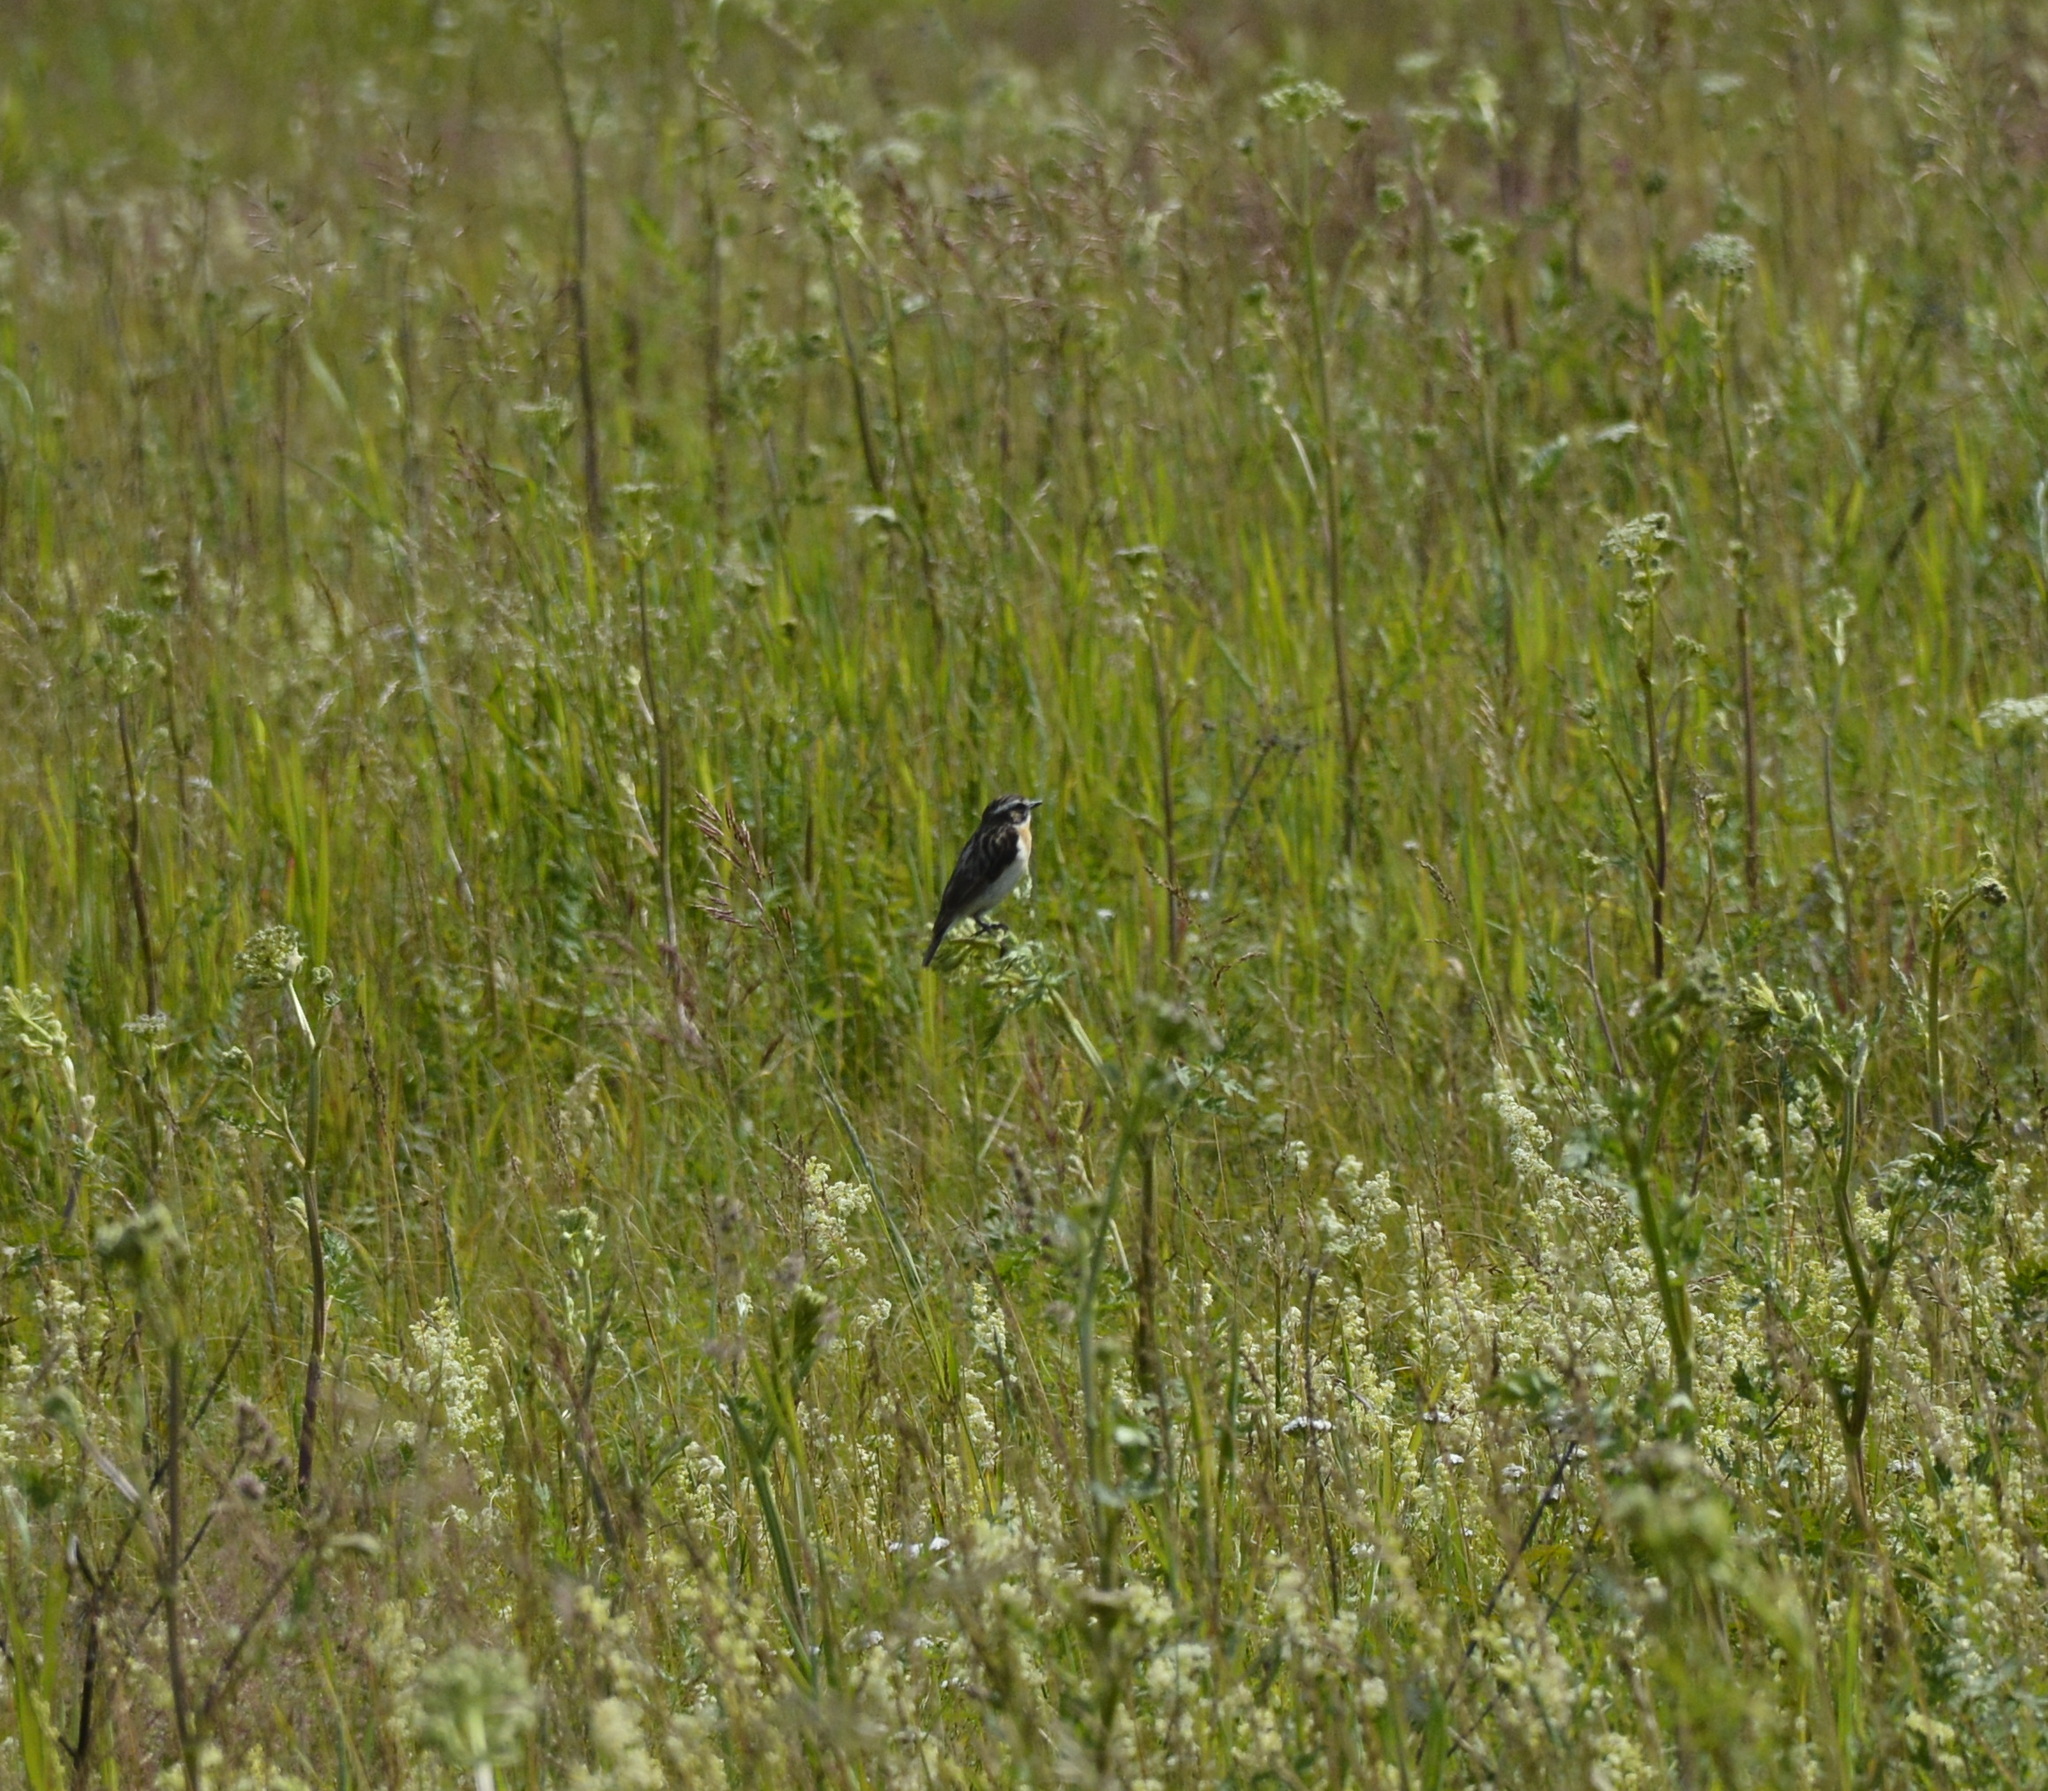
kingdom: Animalia
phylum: Chordata
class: Aves
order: Passeriformes
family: Muscicapidae
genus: Saxicola
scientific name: Saxicola rubetra
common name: Whinchat
